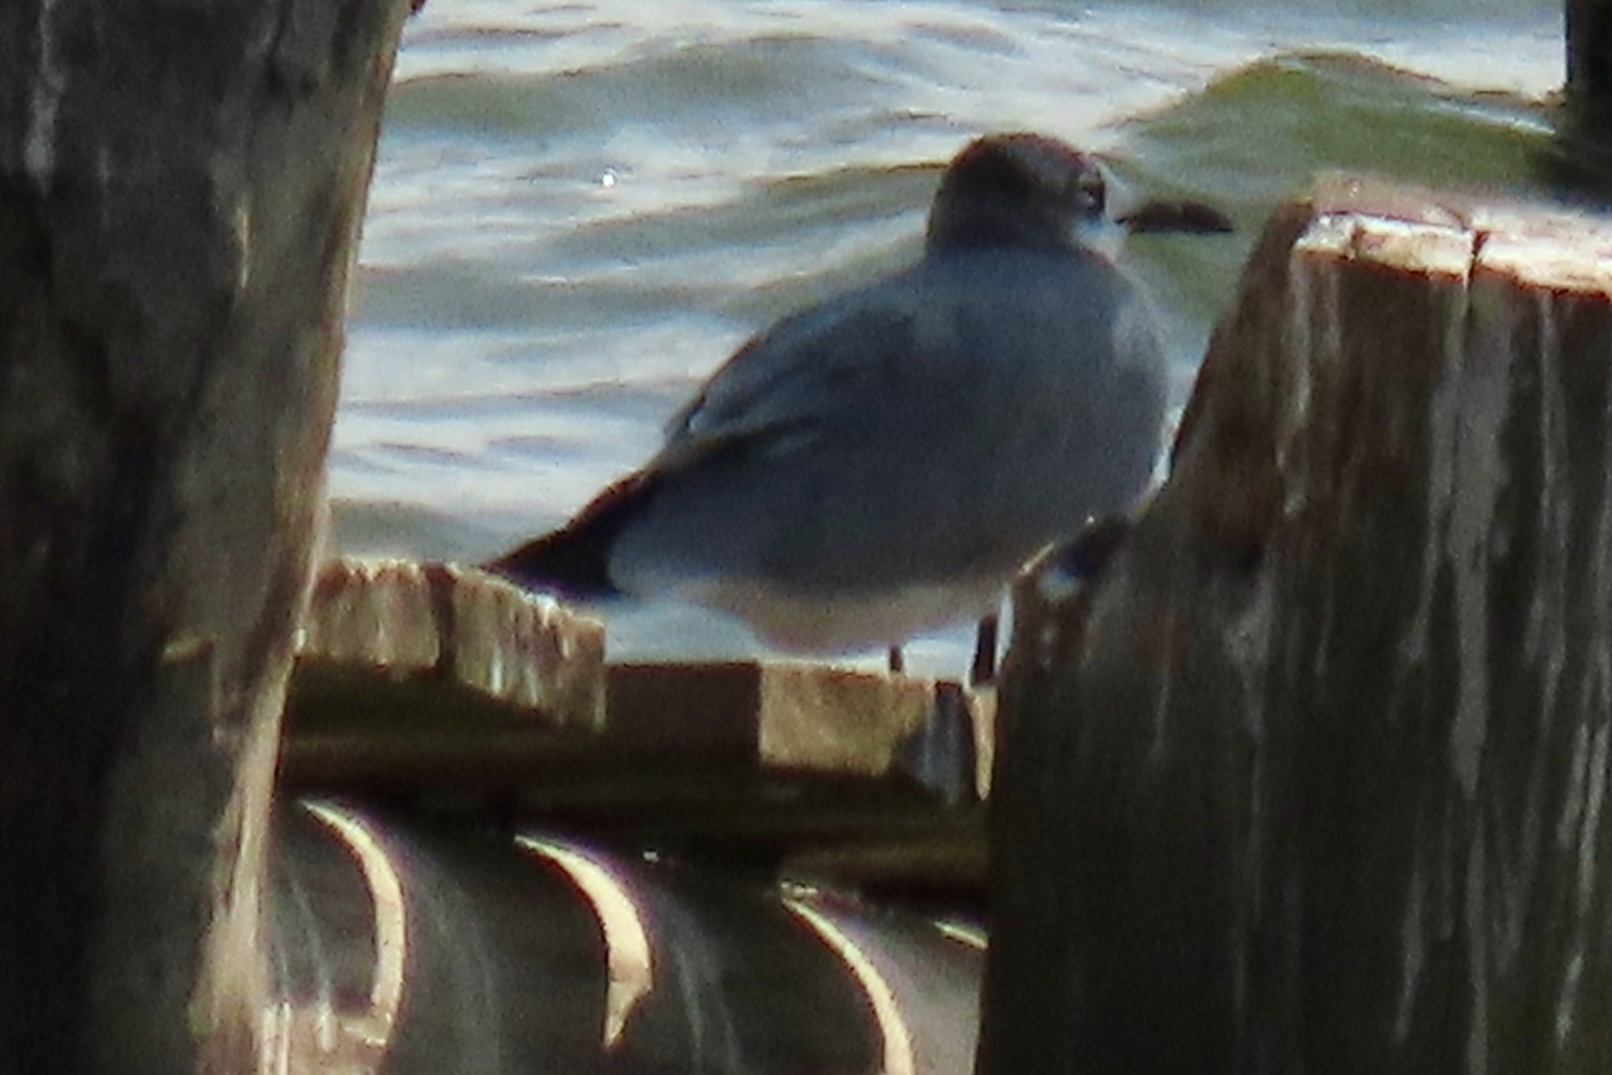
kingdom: Animalia
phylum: Chordata
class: Aves
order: Charadriiformes
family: Laridae
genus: Leucophaeus
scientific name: Leucophaeus atricilla
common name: Laughing gull
